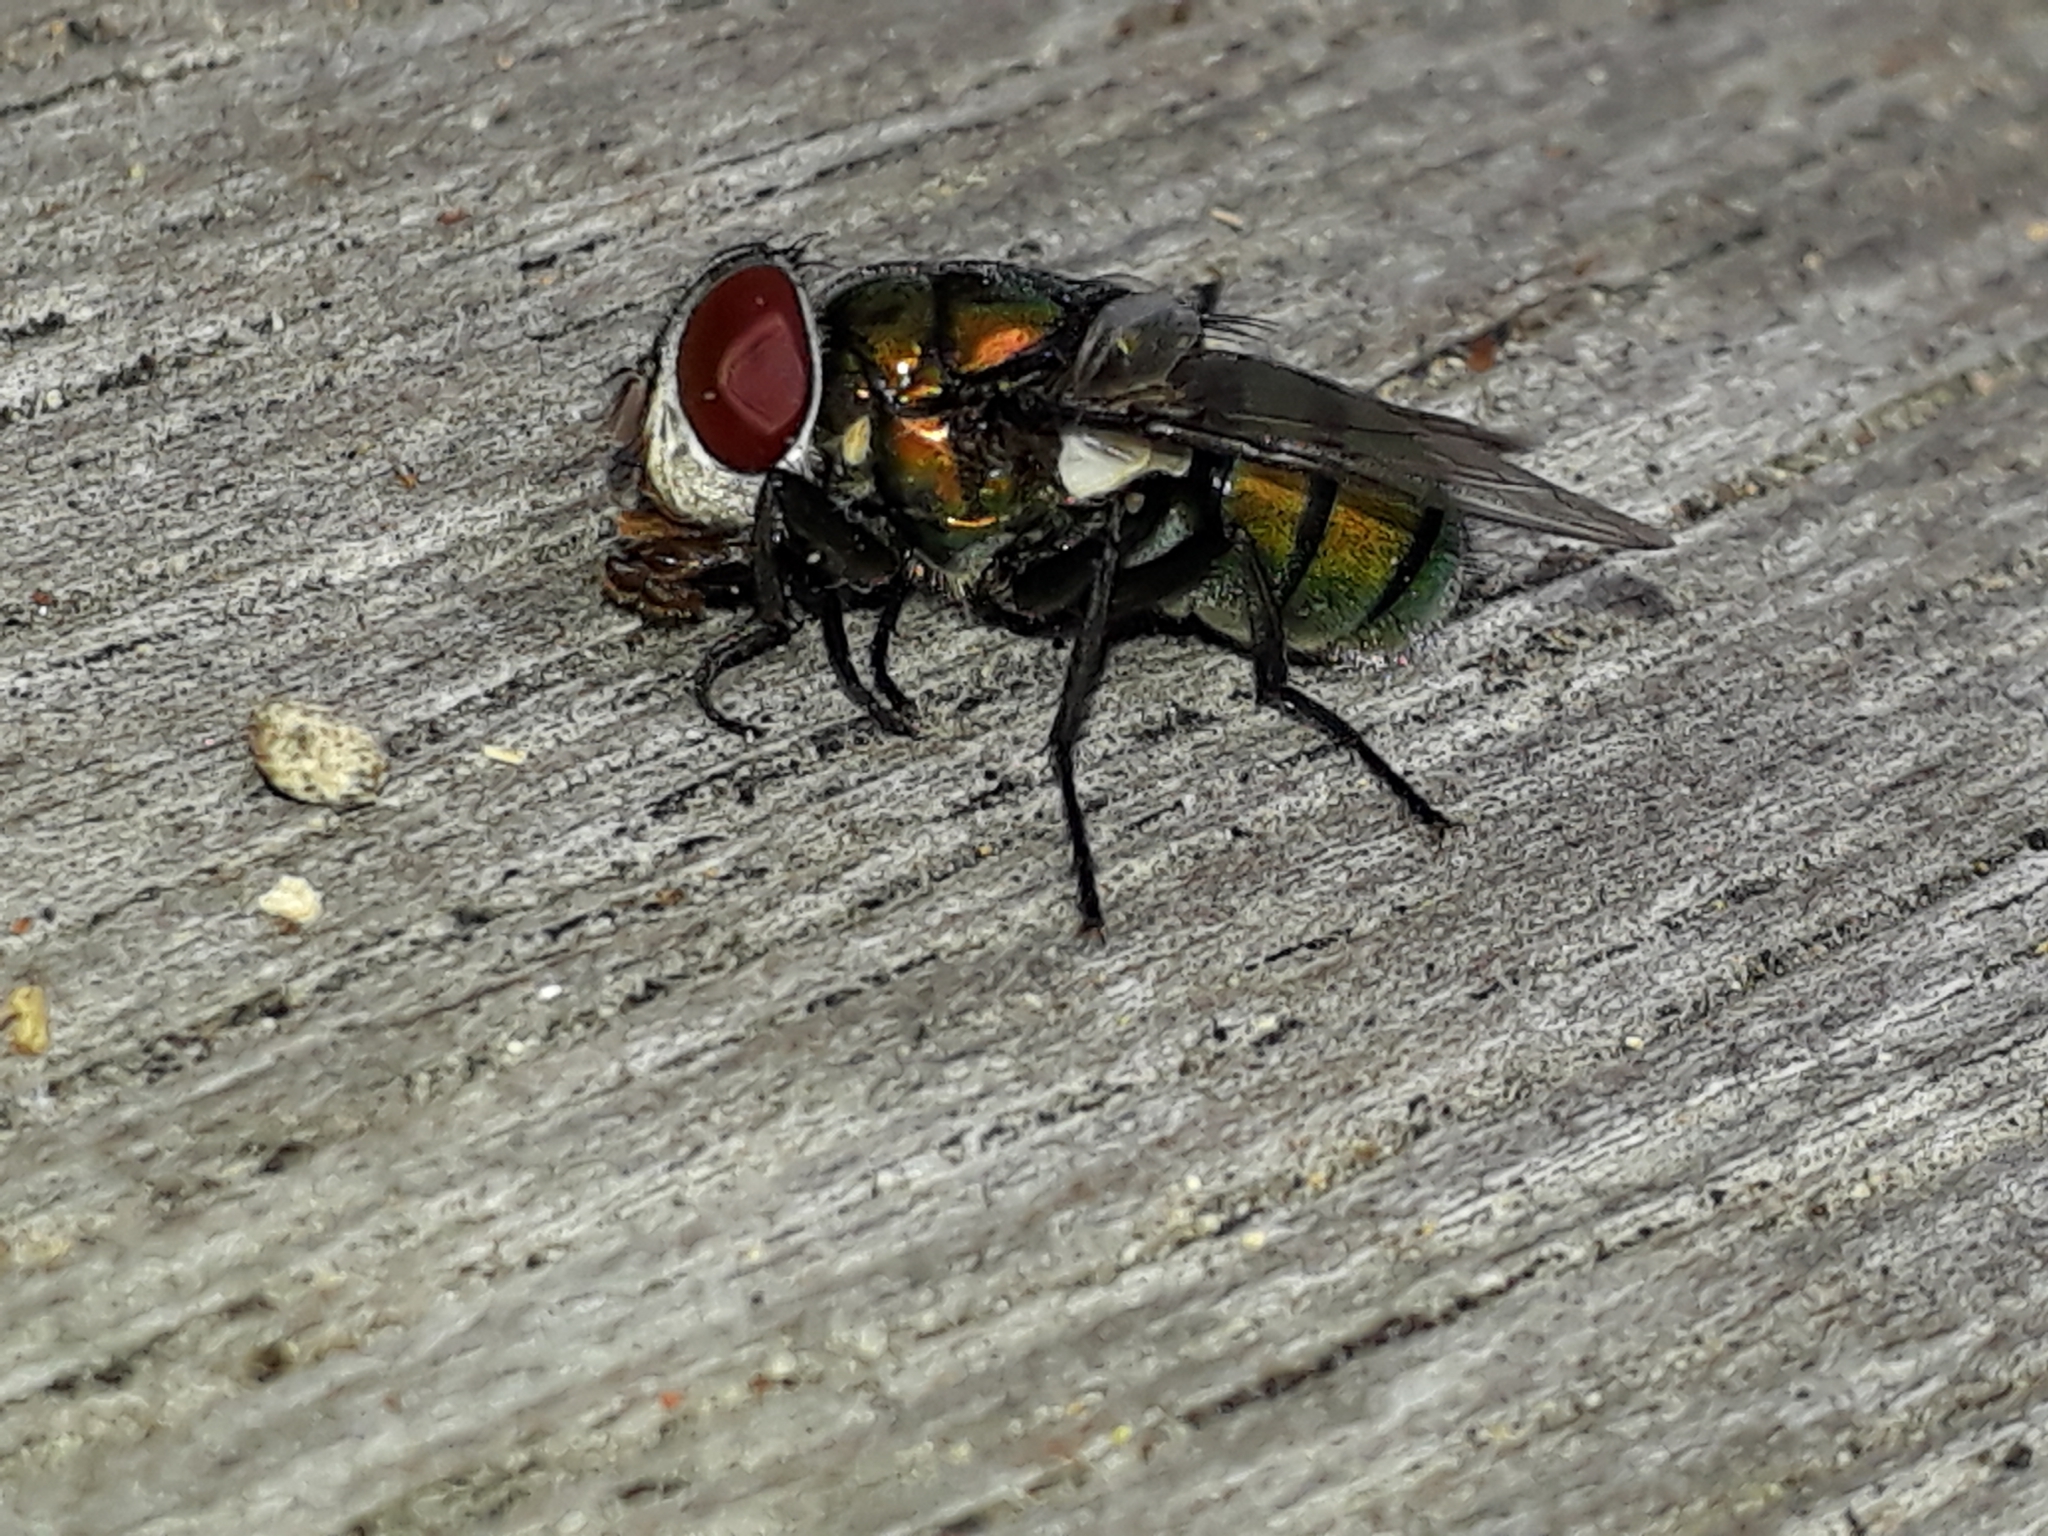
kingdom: Animalia
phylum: Arthropoda
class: Insecta
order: Diptera
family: Calliphoridae
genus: Chrysomya
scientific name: Chrysomya rufifacies
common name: Blow fly
